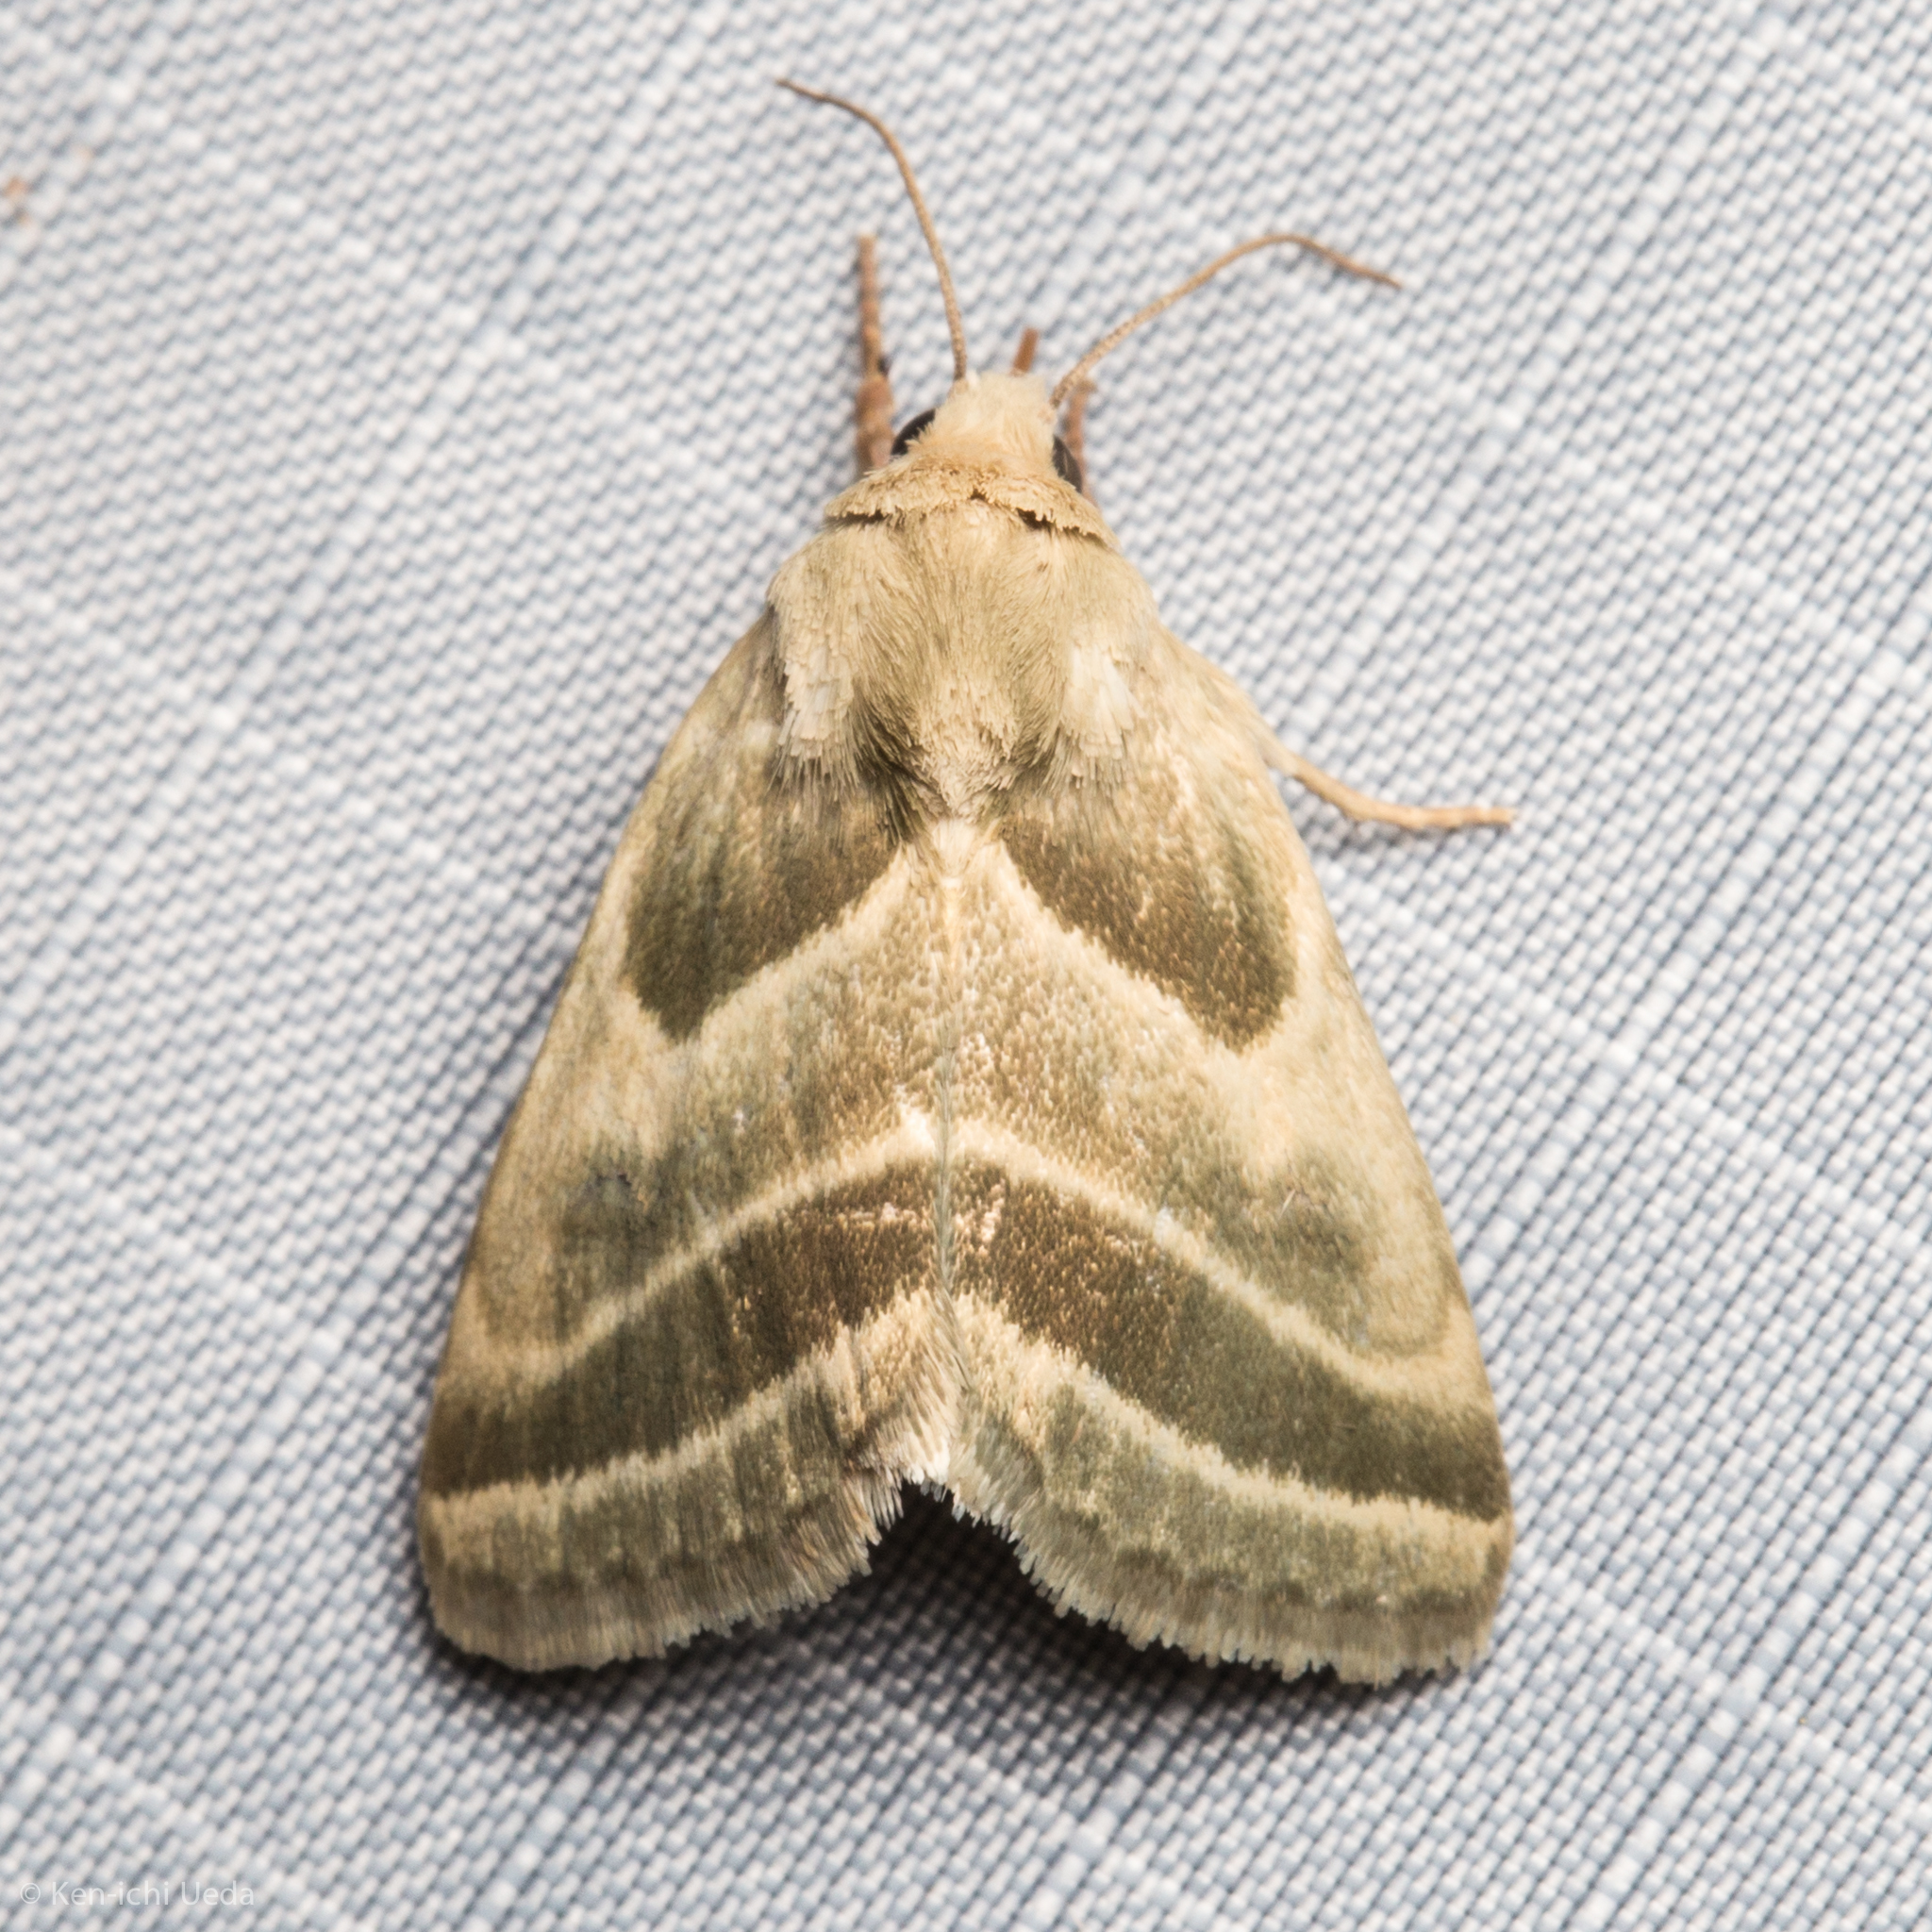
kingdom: Animalia
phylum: Arthropoda
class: Insecta
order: Lepidoptera
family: Noctuidae
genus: Schinia
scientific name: Schinia trifascia
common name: Three-lined flower moth
